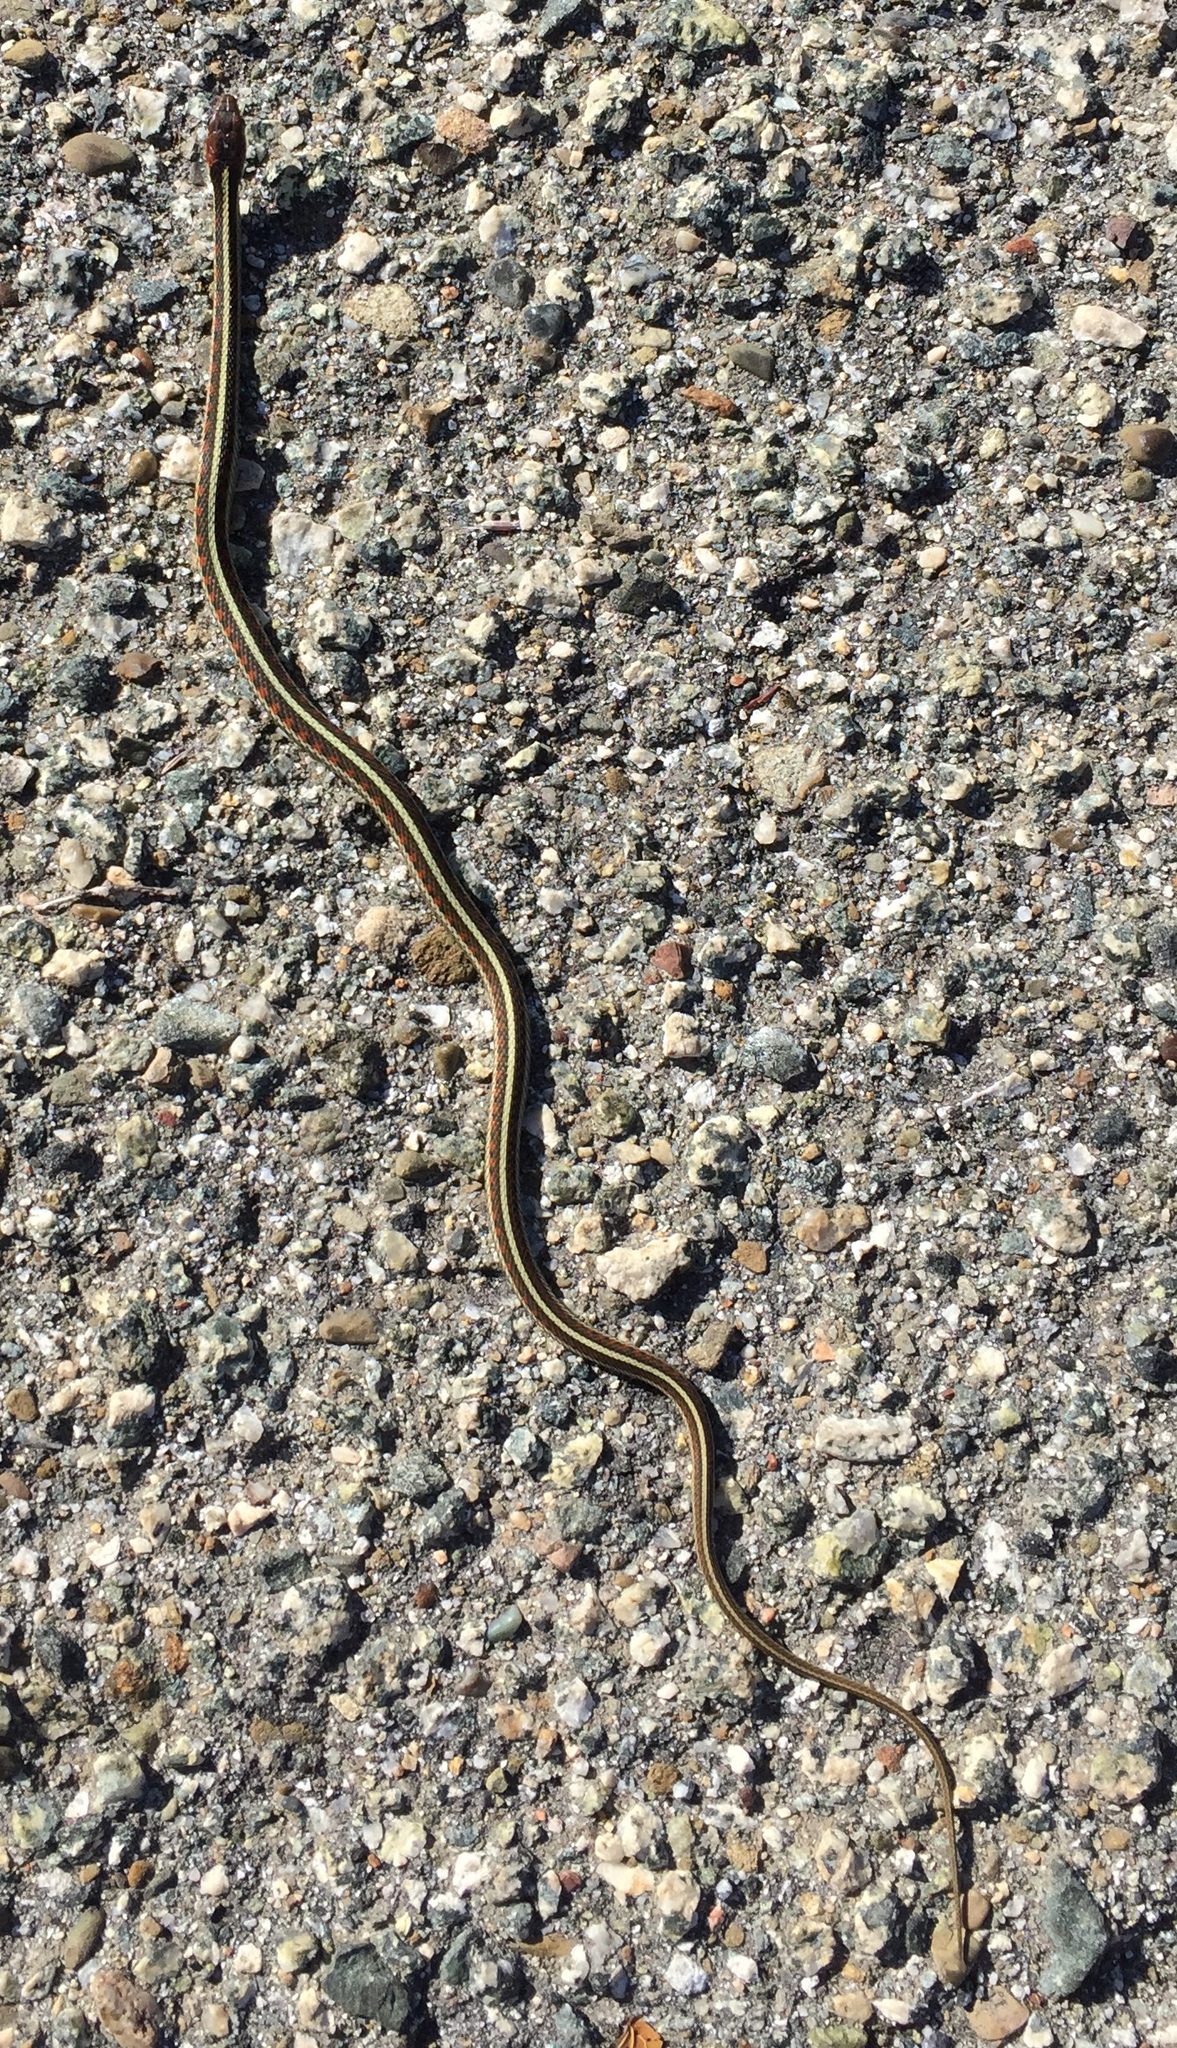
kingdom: Animalia
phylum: Chordata
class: Squamata
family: Colubridae
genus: Thamnophis
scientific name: Thamnophis sirtalis
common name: Common garter snake
